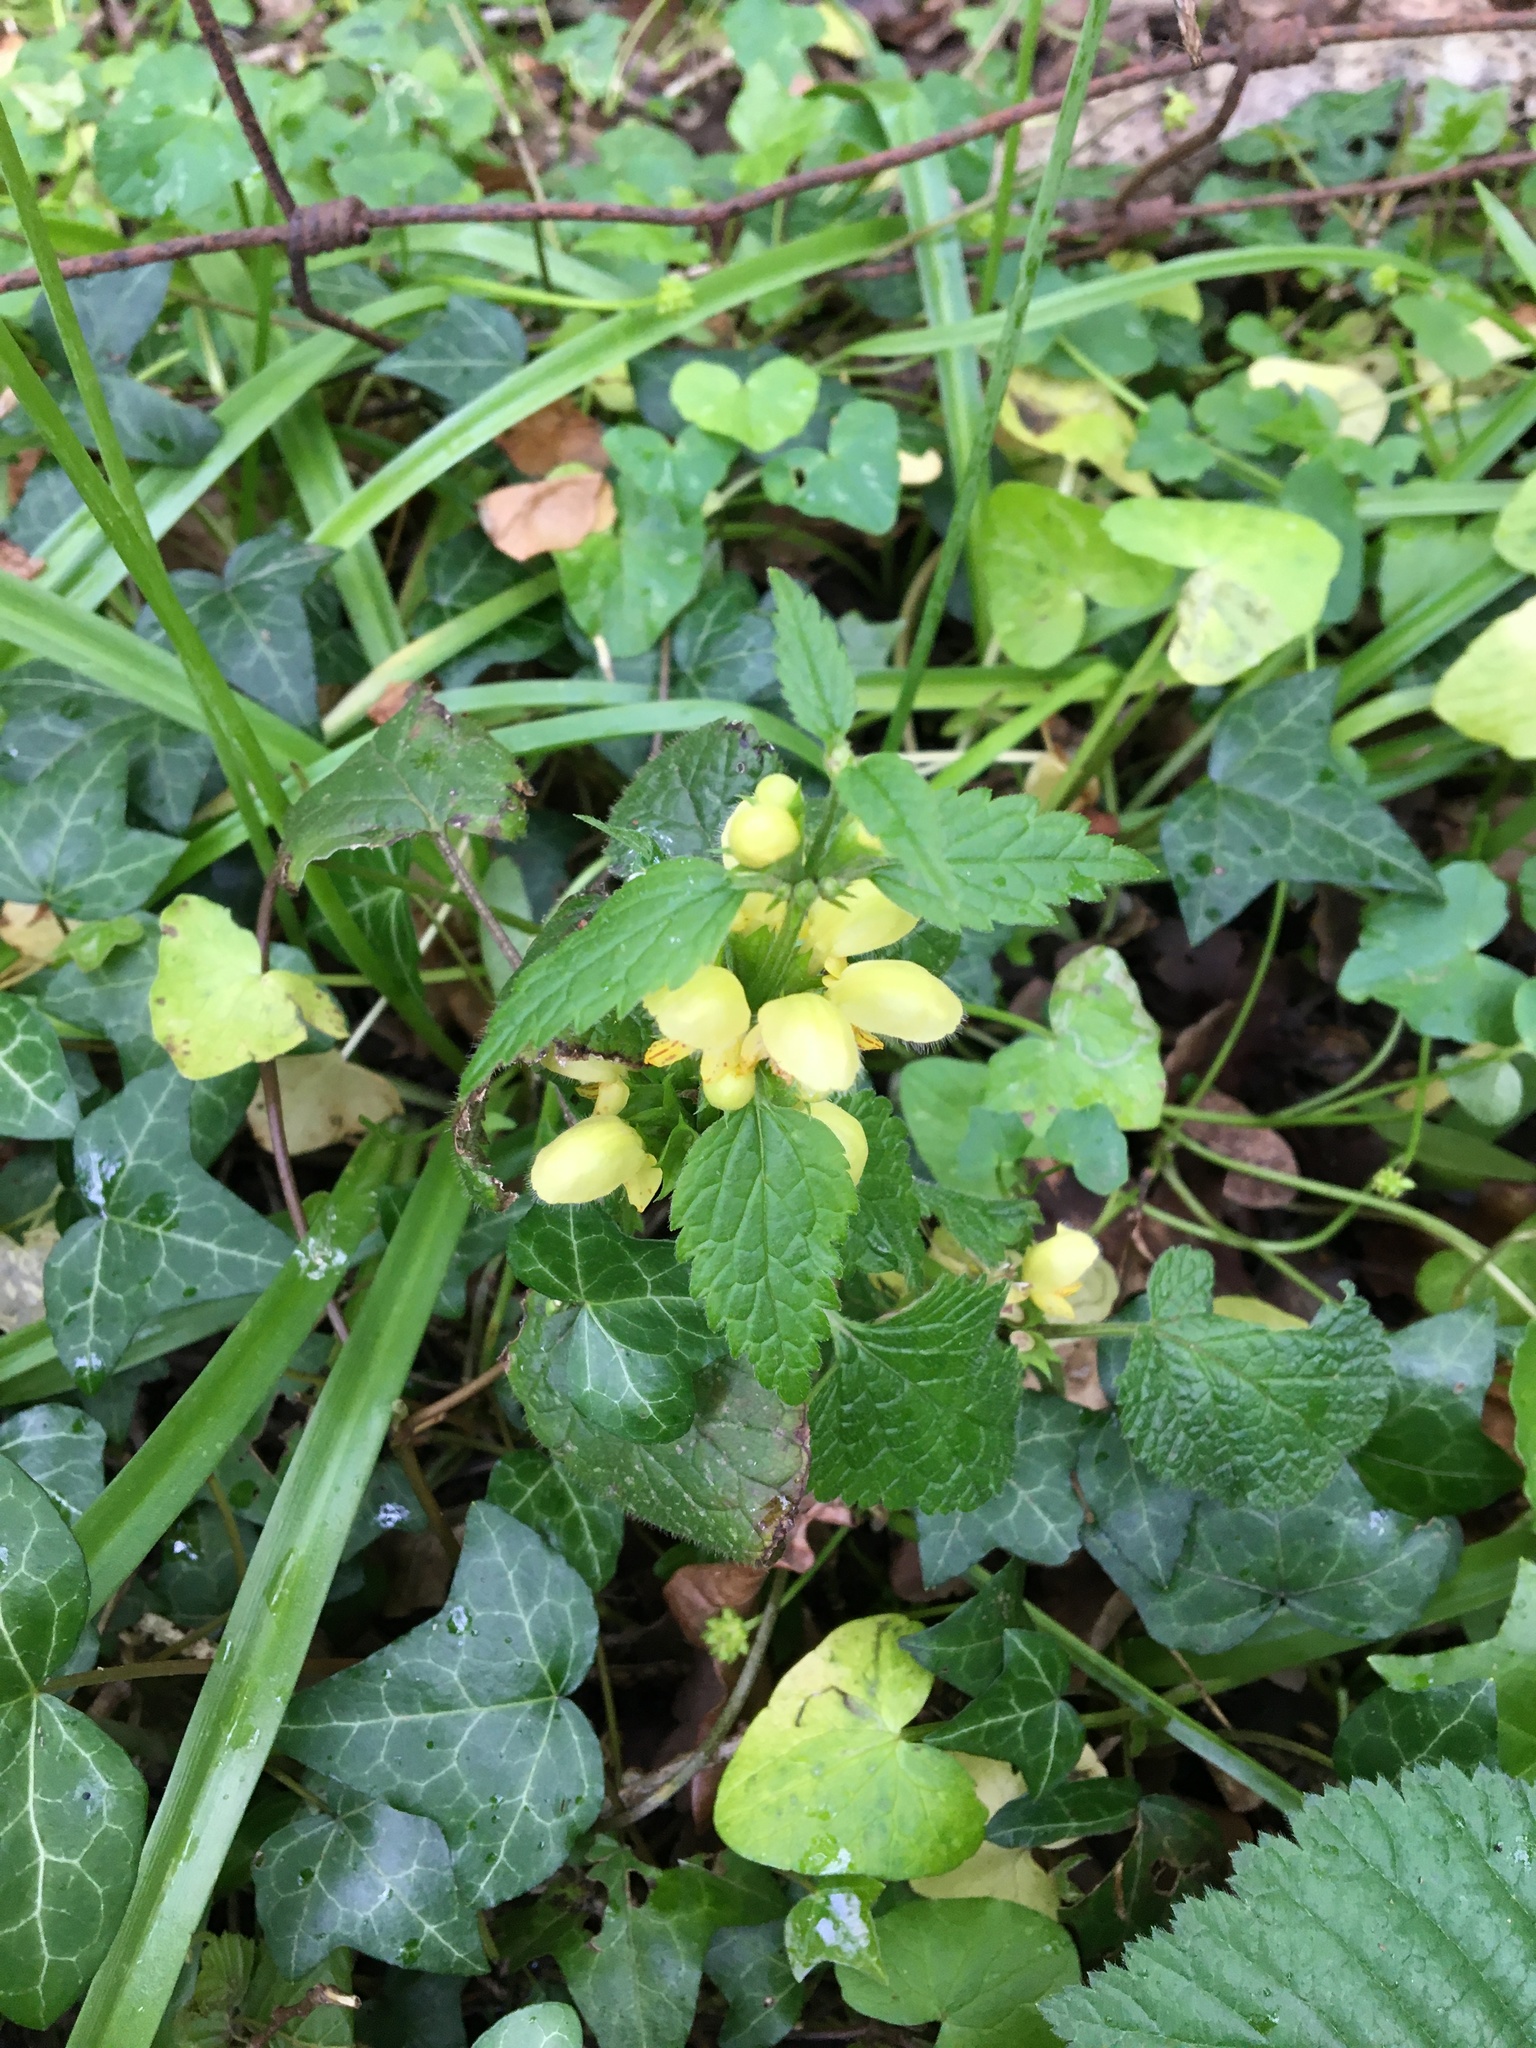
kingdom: Plantae
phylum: Tracheophyta
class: Magnoliopsida
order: Lamiales
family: Lamiaceae
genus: Lamium
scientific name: Lamium galeobdolon
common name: Yellow archangel
